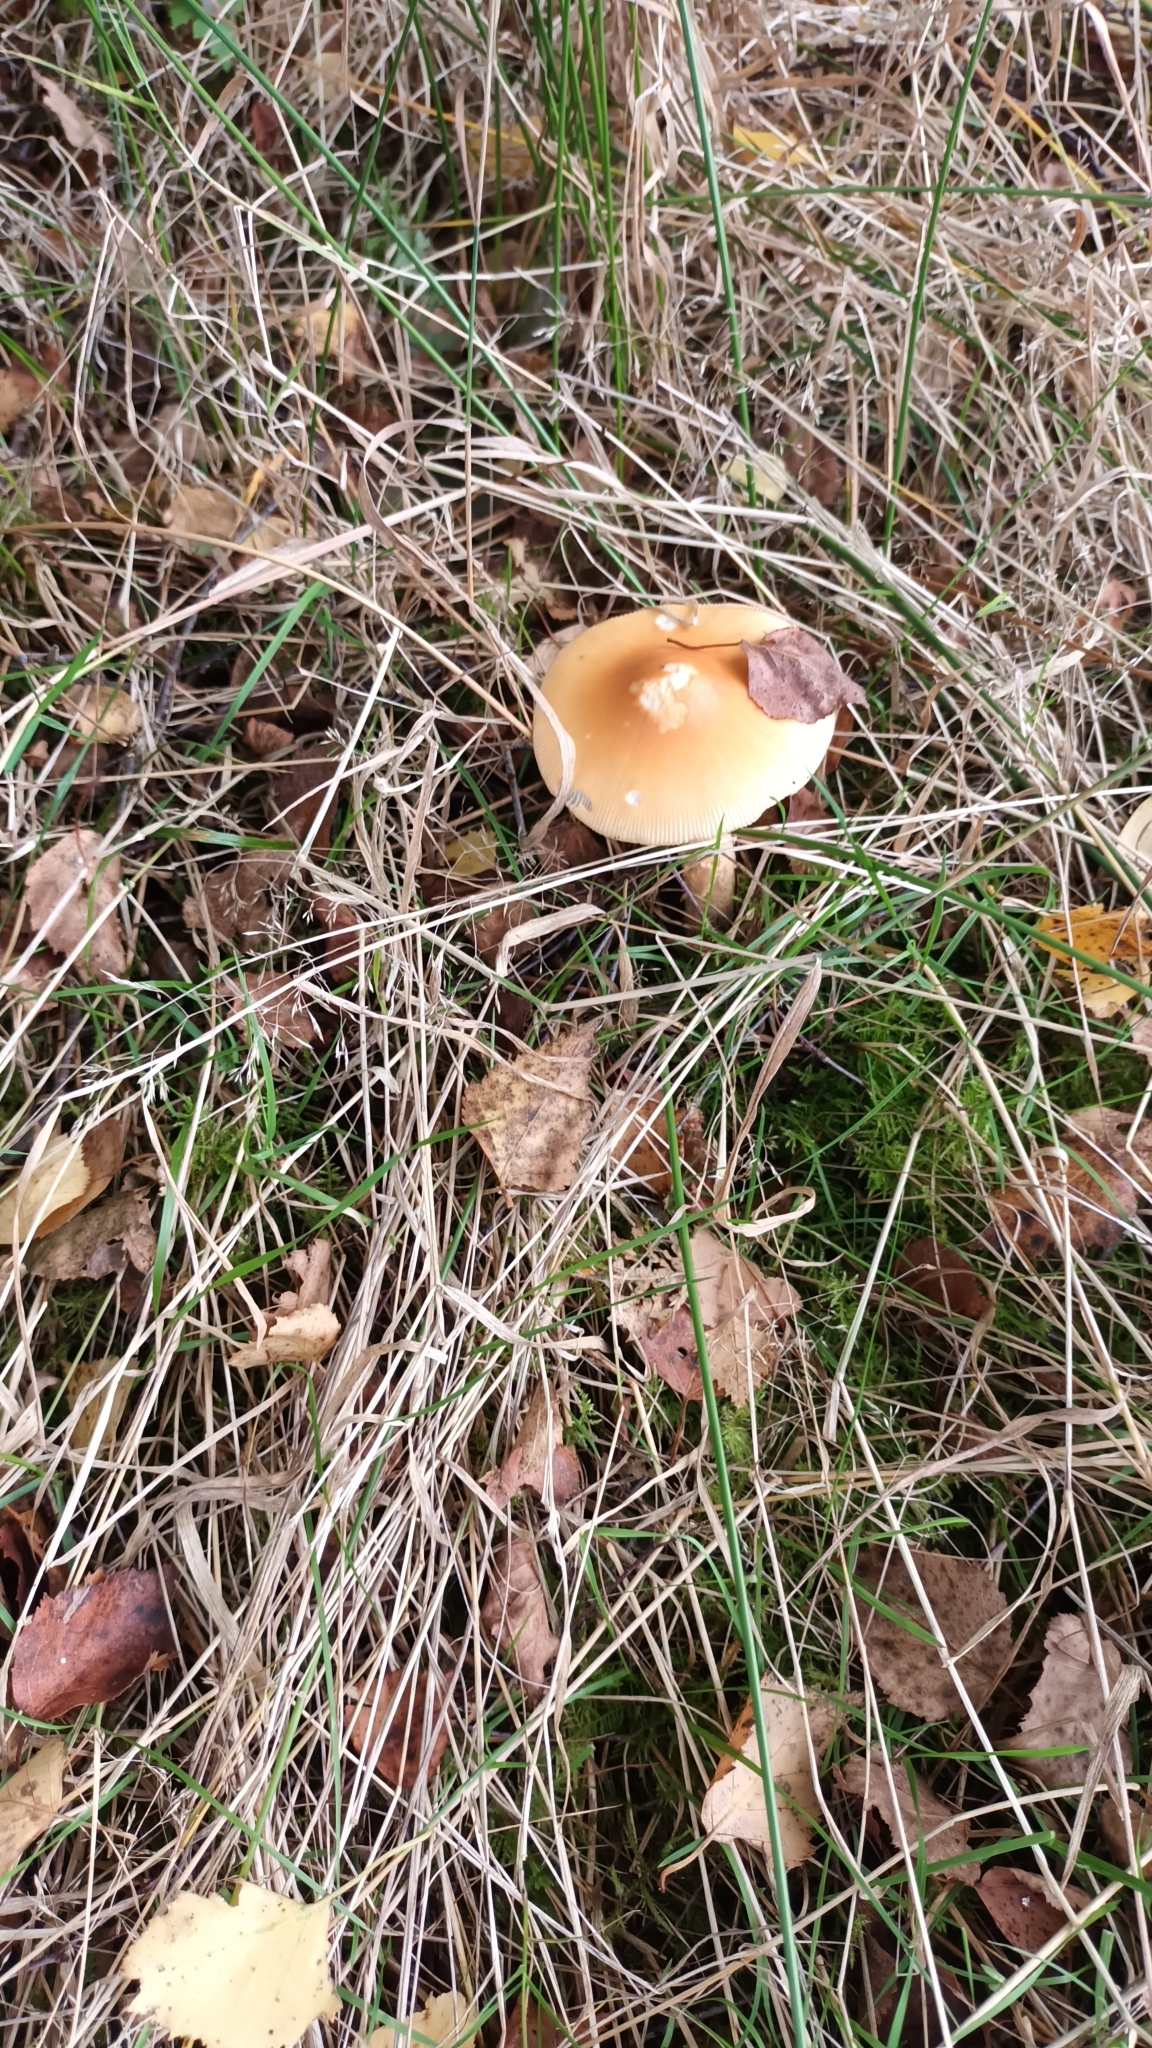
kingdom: Fungi
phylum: Basidiomycota
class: Agaricomycetes
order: Agaricales
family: Amanitaceae
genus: Amanita
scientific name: Amanita crocea
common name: Orange grisette
